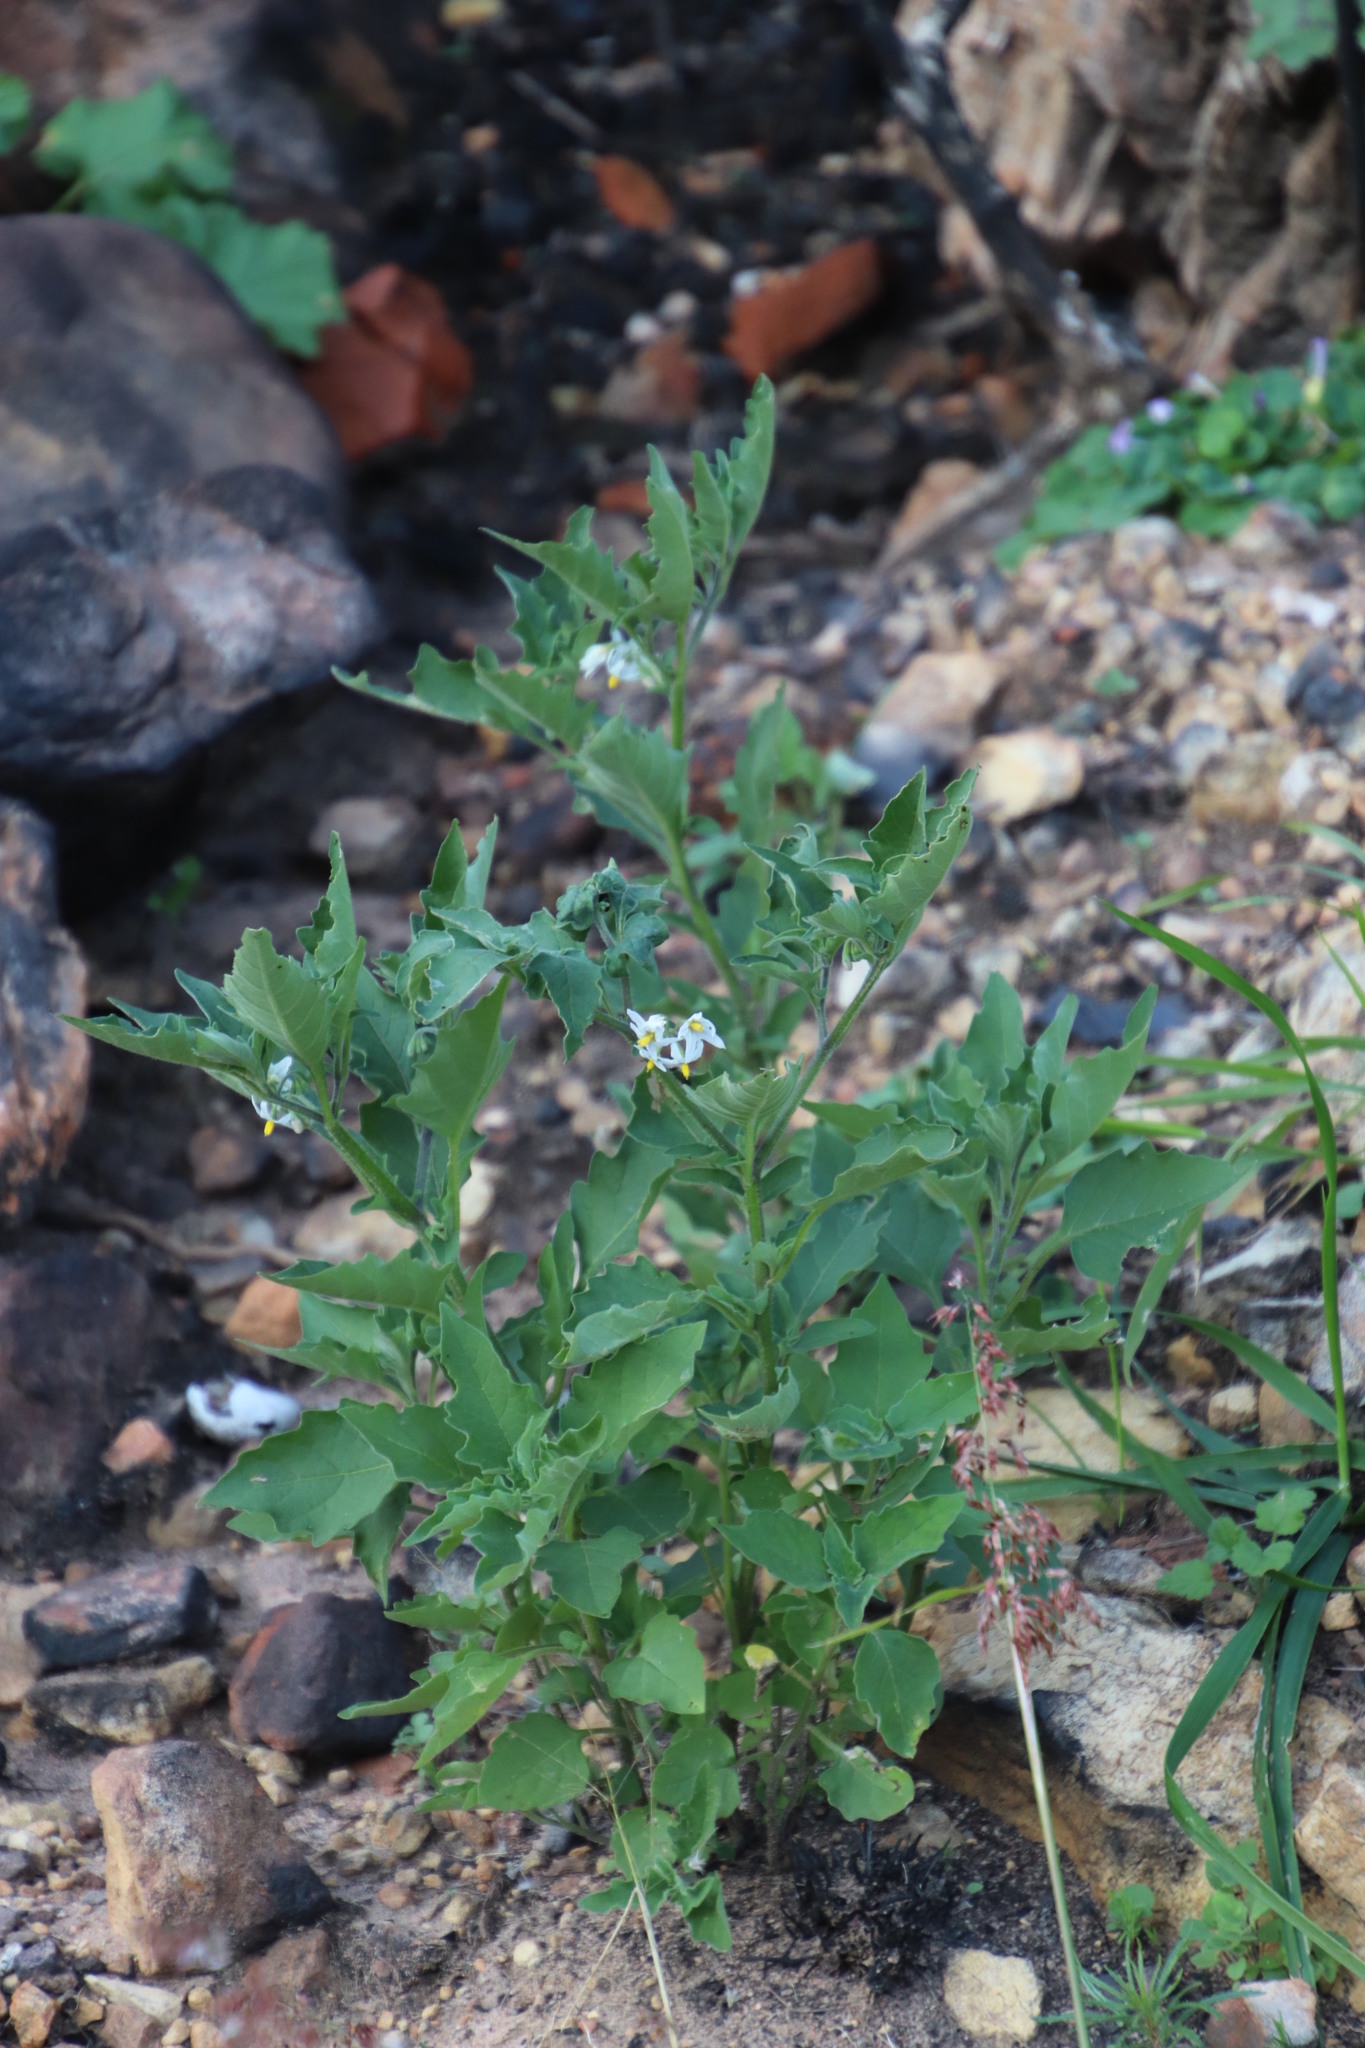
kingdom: Plantae
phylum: Tracheophyta
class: Magnoliopsida
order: Solanales
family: Solanaceae
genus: Solanum
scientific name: Solanum retroflexum
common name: Wonderberry
